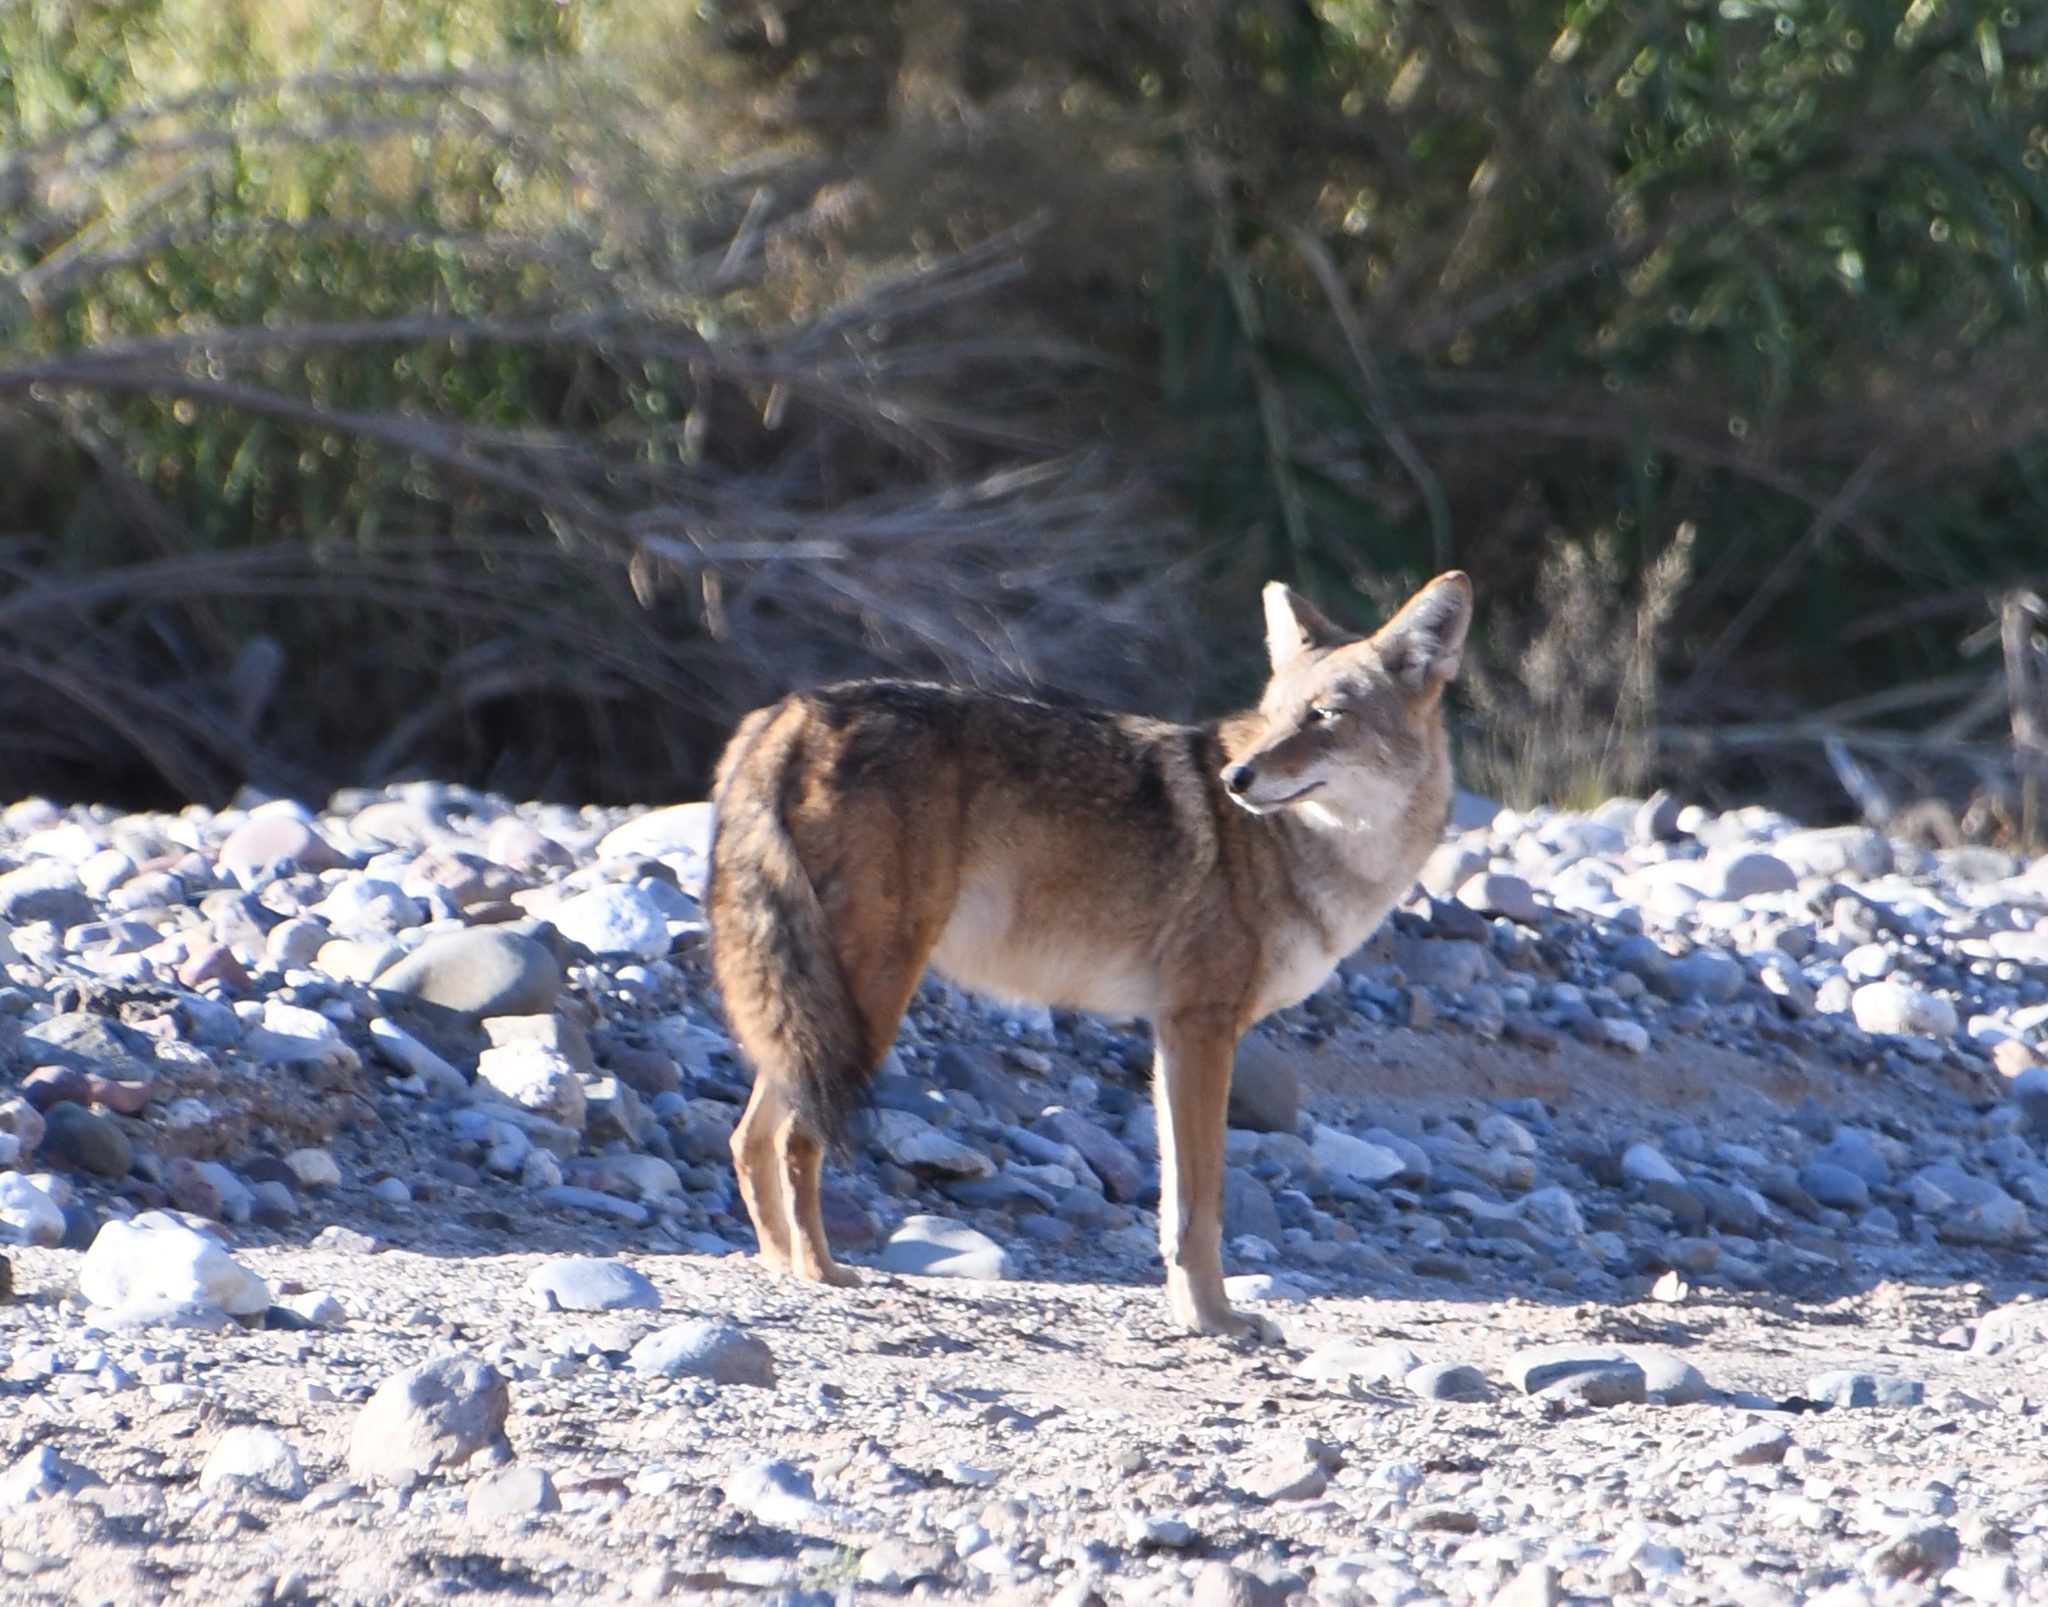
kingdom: Animalia
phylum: Chordata
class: Mammalia
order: Carnivora
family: Canidae
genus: Canis
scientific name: Canis latrans
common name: Coyote
